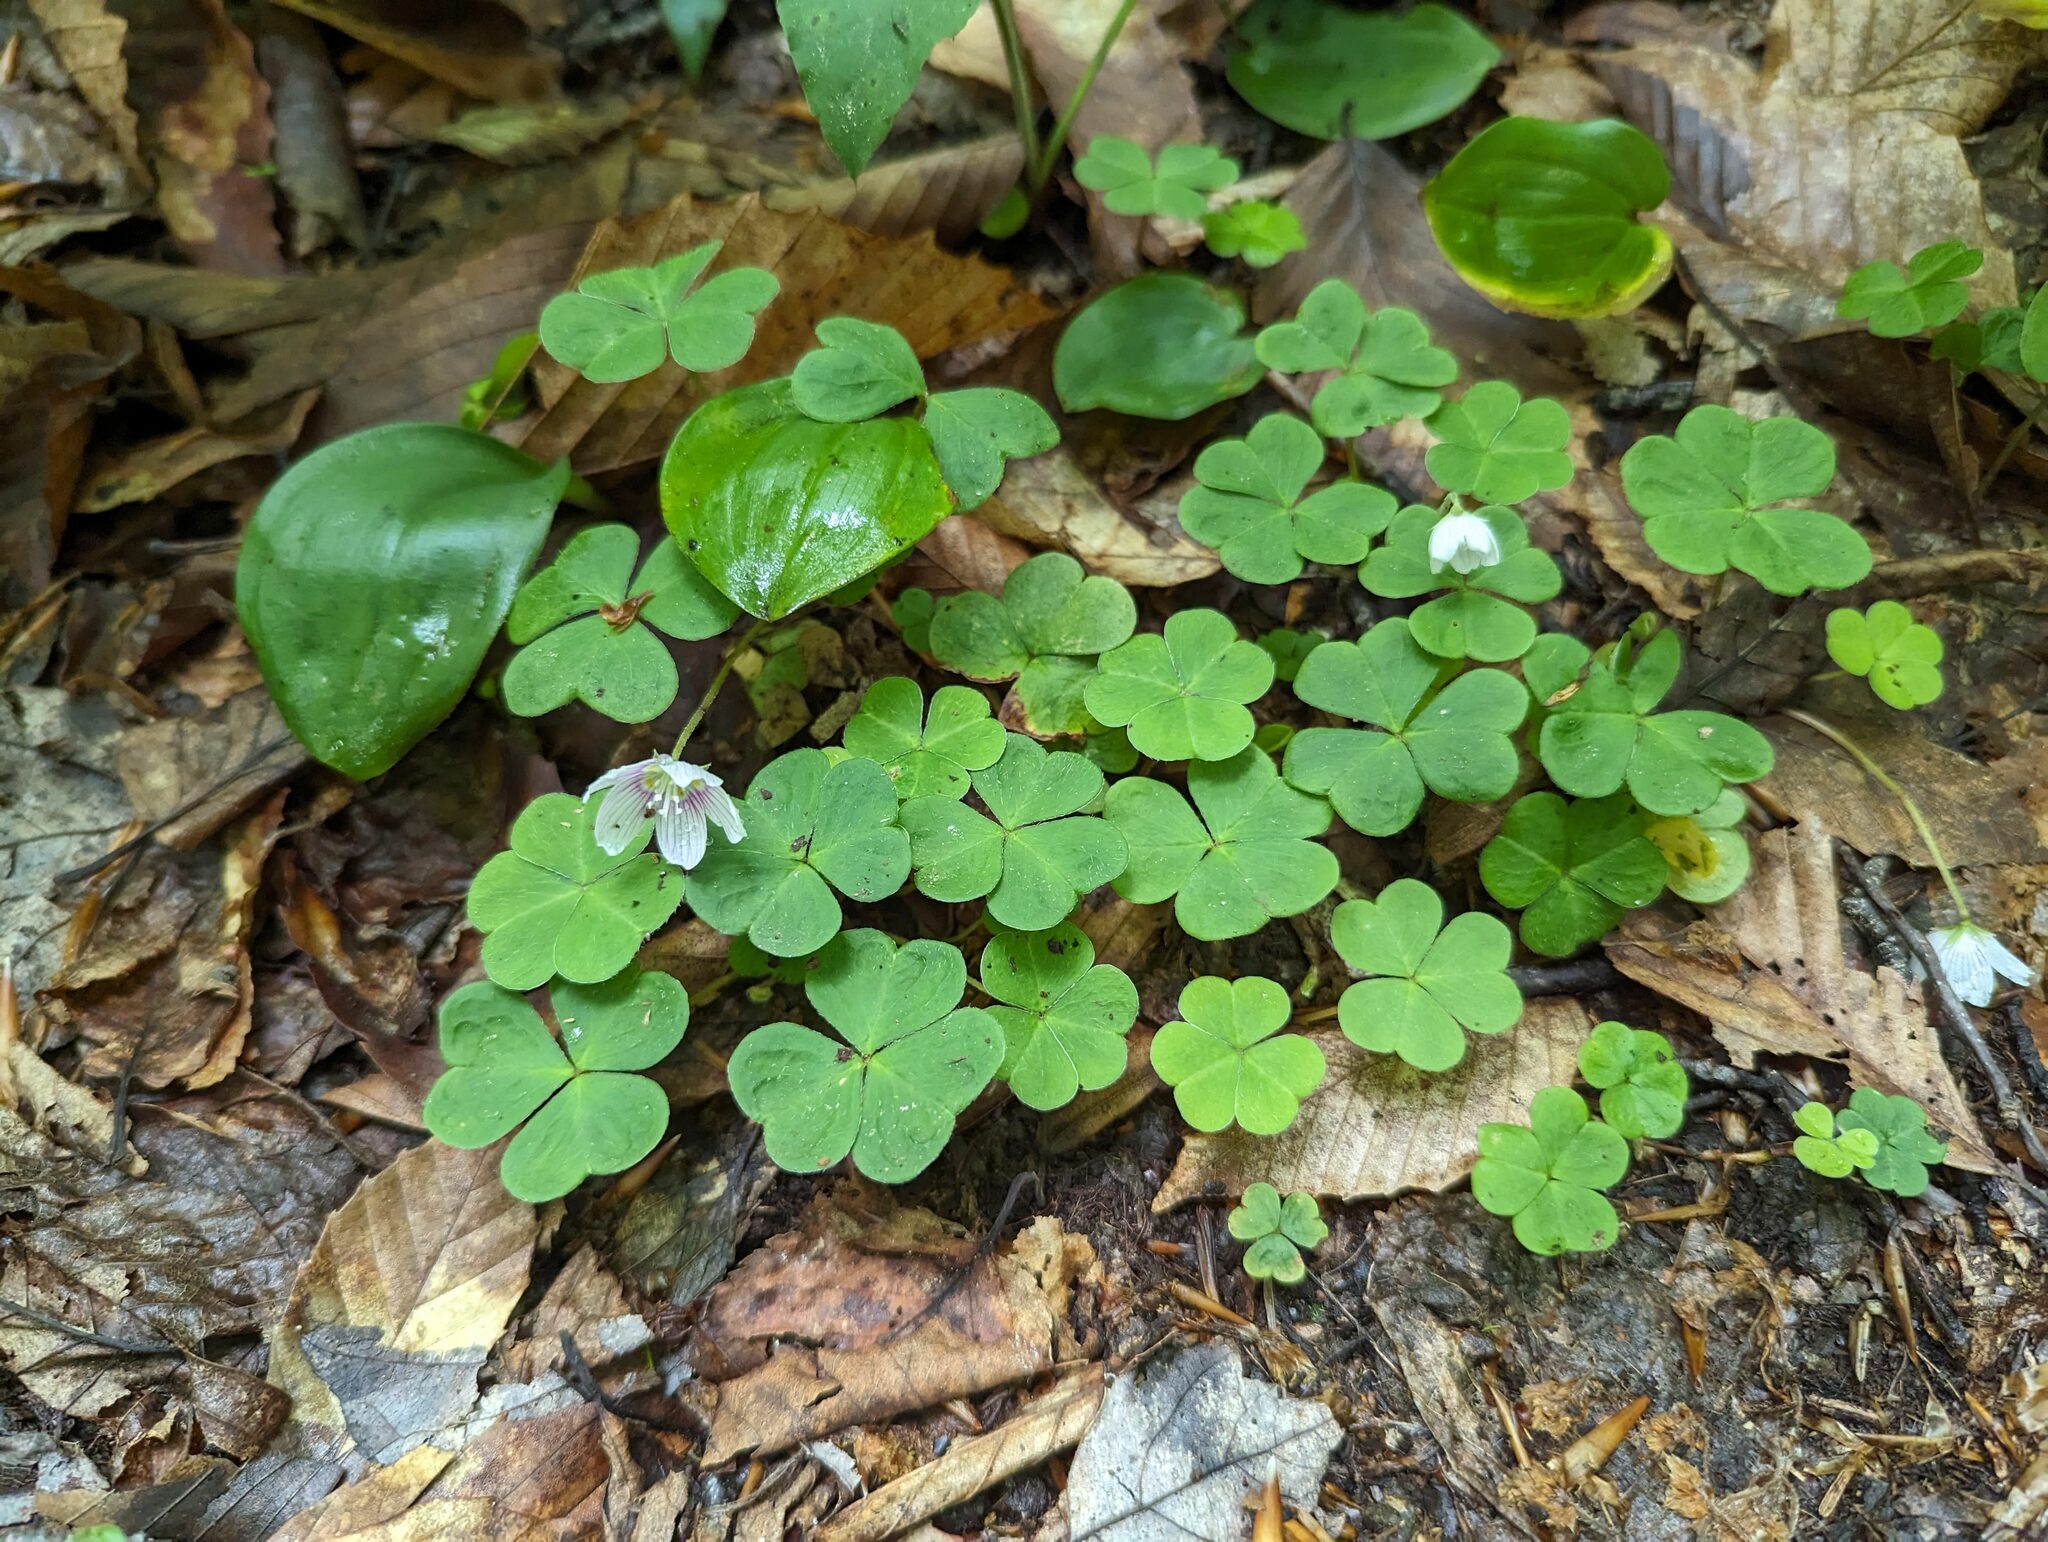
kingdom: Plantae
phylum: Tracheophyta
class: Magnoliopsida
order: Oxalidales
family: Oxalidaceae
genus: Oxalis
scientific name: Oxalis montana
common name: American wood-sorrel
